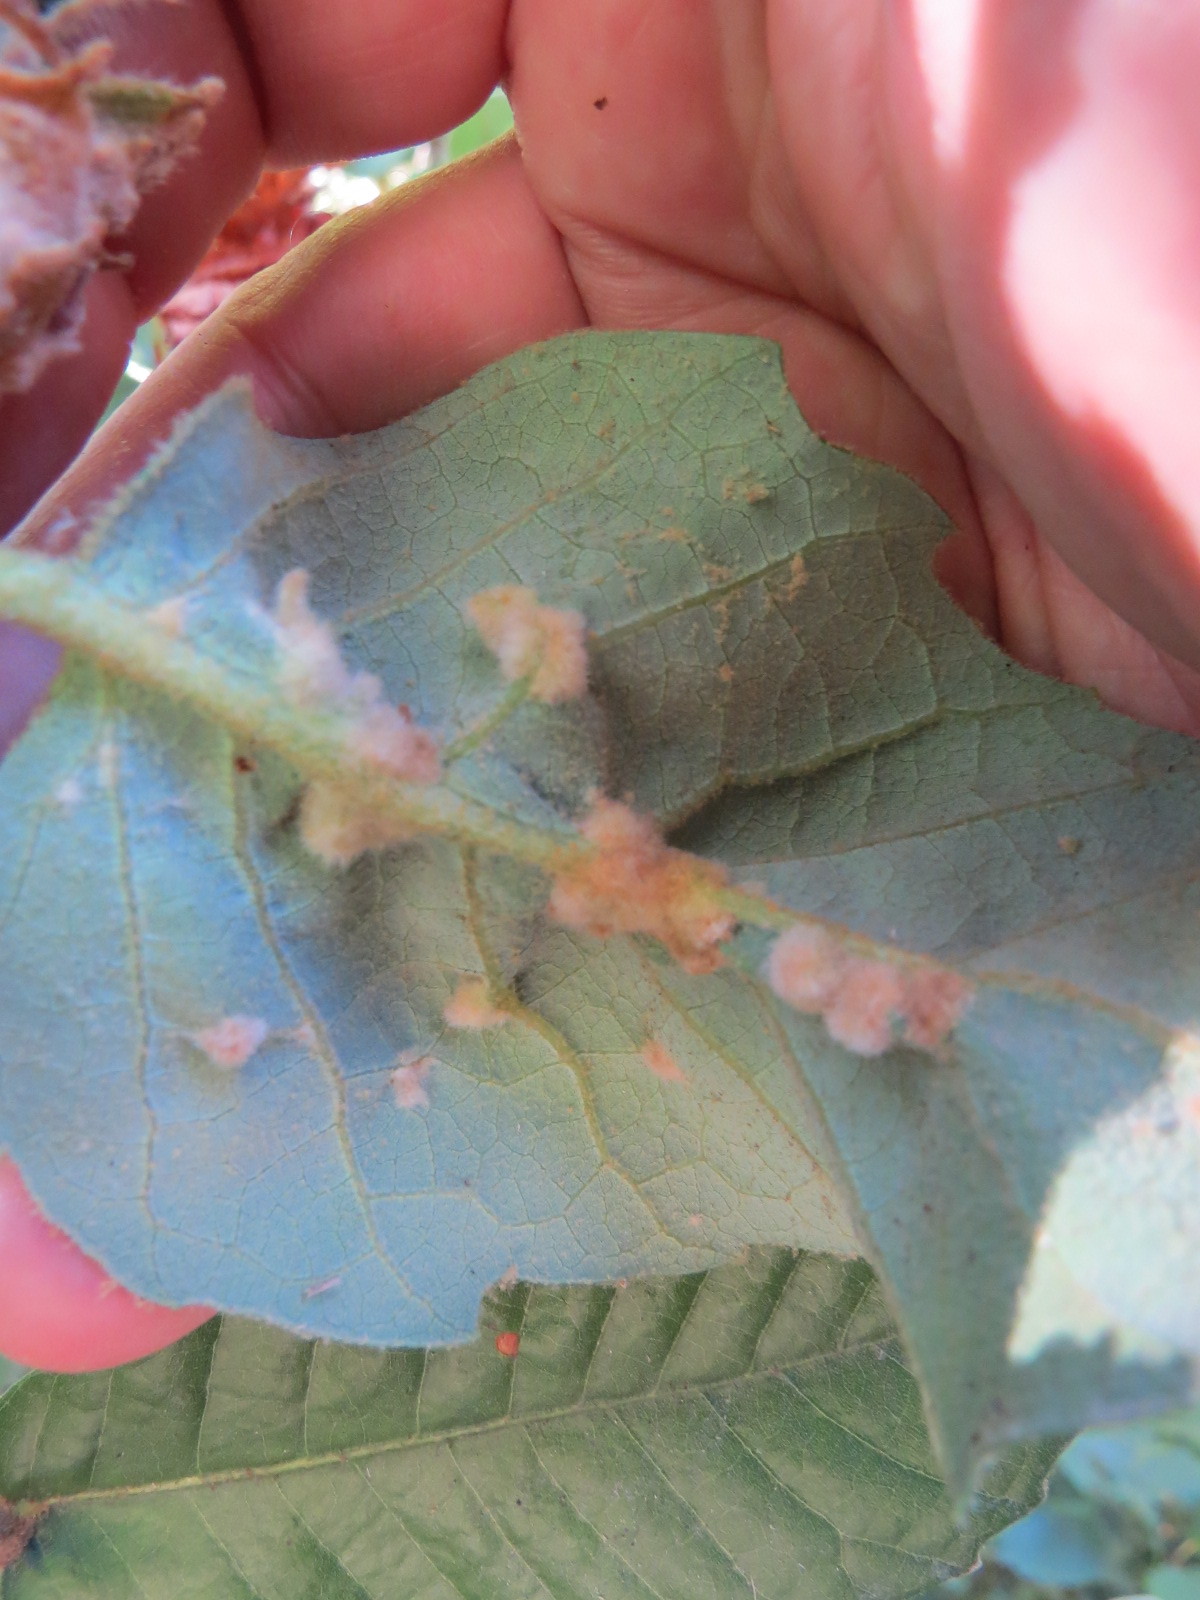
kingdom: Plantae
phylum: Tracheophyta
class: Magnoliopsida
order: Fagales
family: Fagaceae
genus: Notholithocarpus
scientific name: Notholithocarpus densiflorus
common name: Tan bark oak
